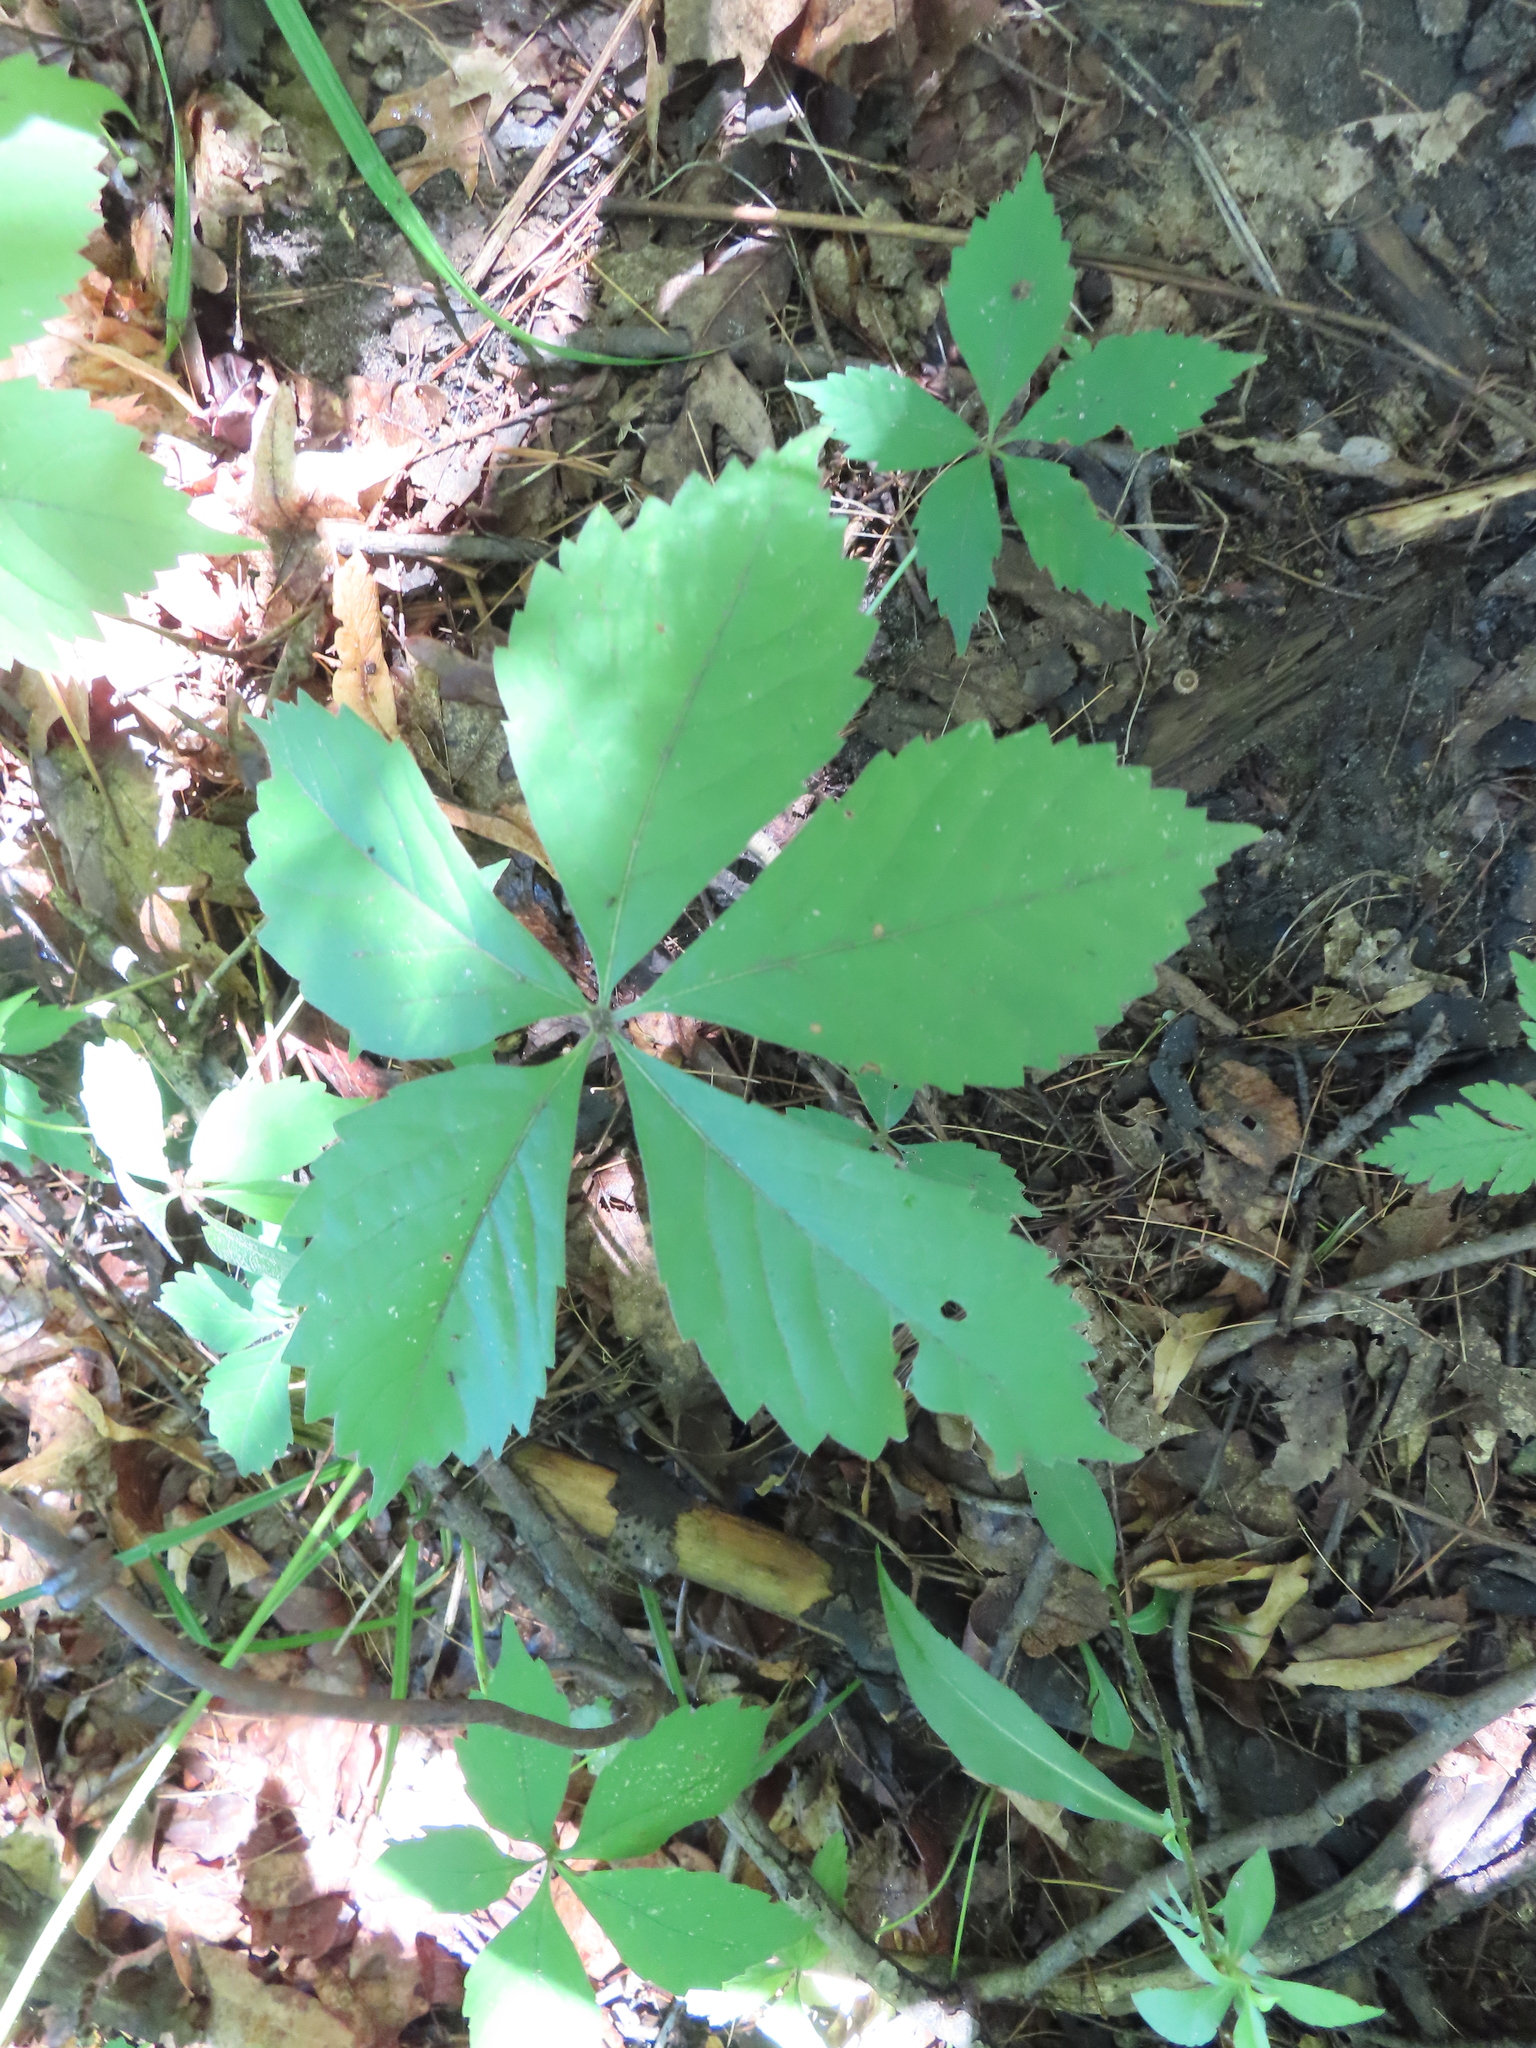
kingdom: Plantae
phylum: Tracheophyta
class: Magnoliopsida
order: Vitales
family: Vitaceae
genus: Parthenocissus
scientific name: Parthenocissus quinquefolia
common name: Virginia-creeper
